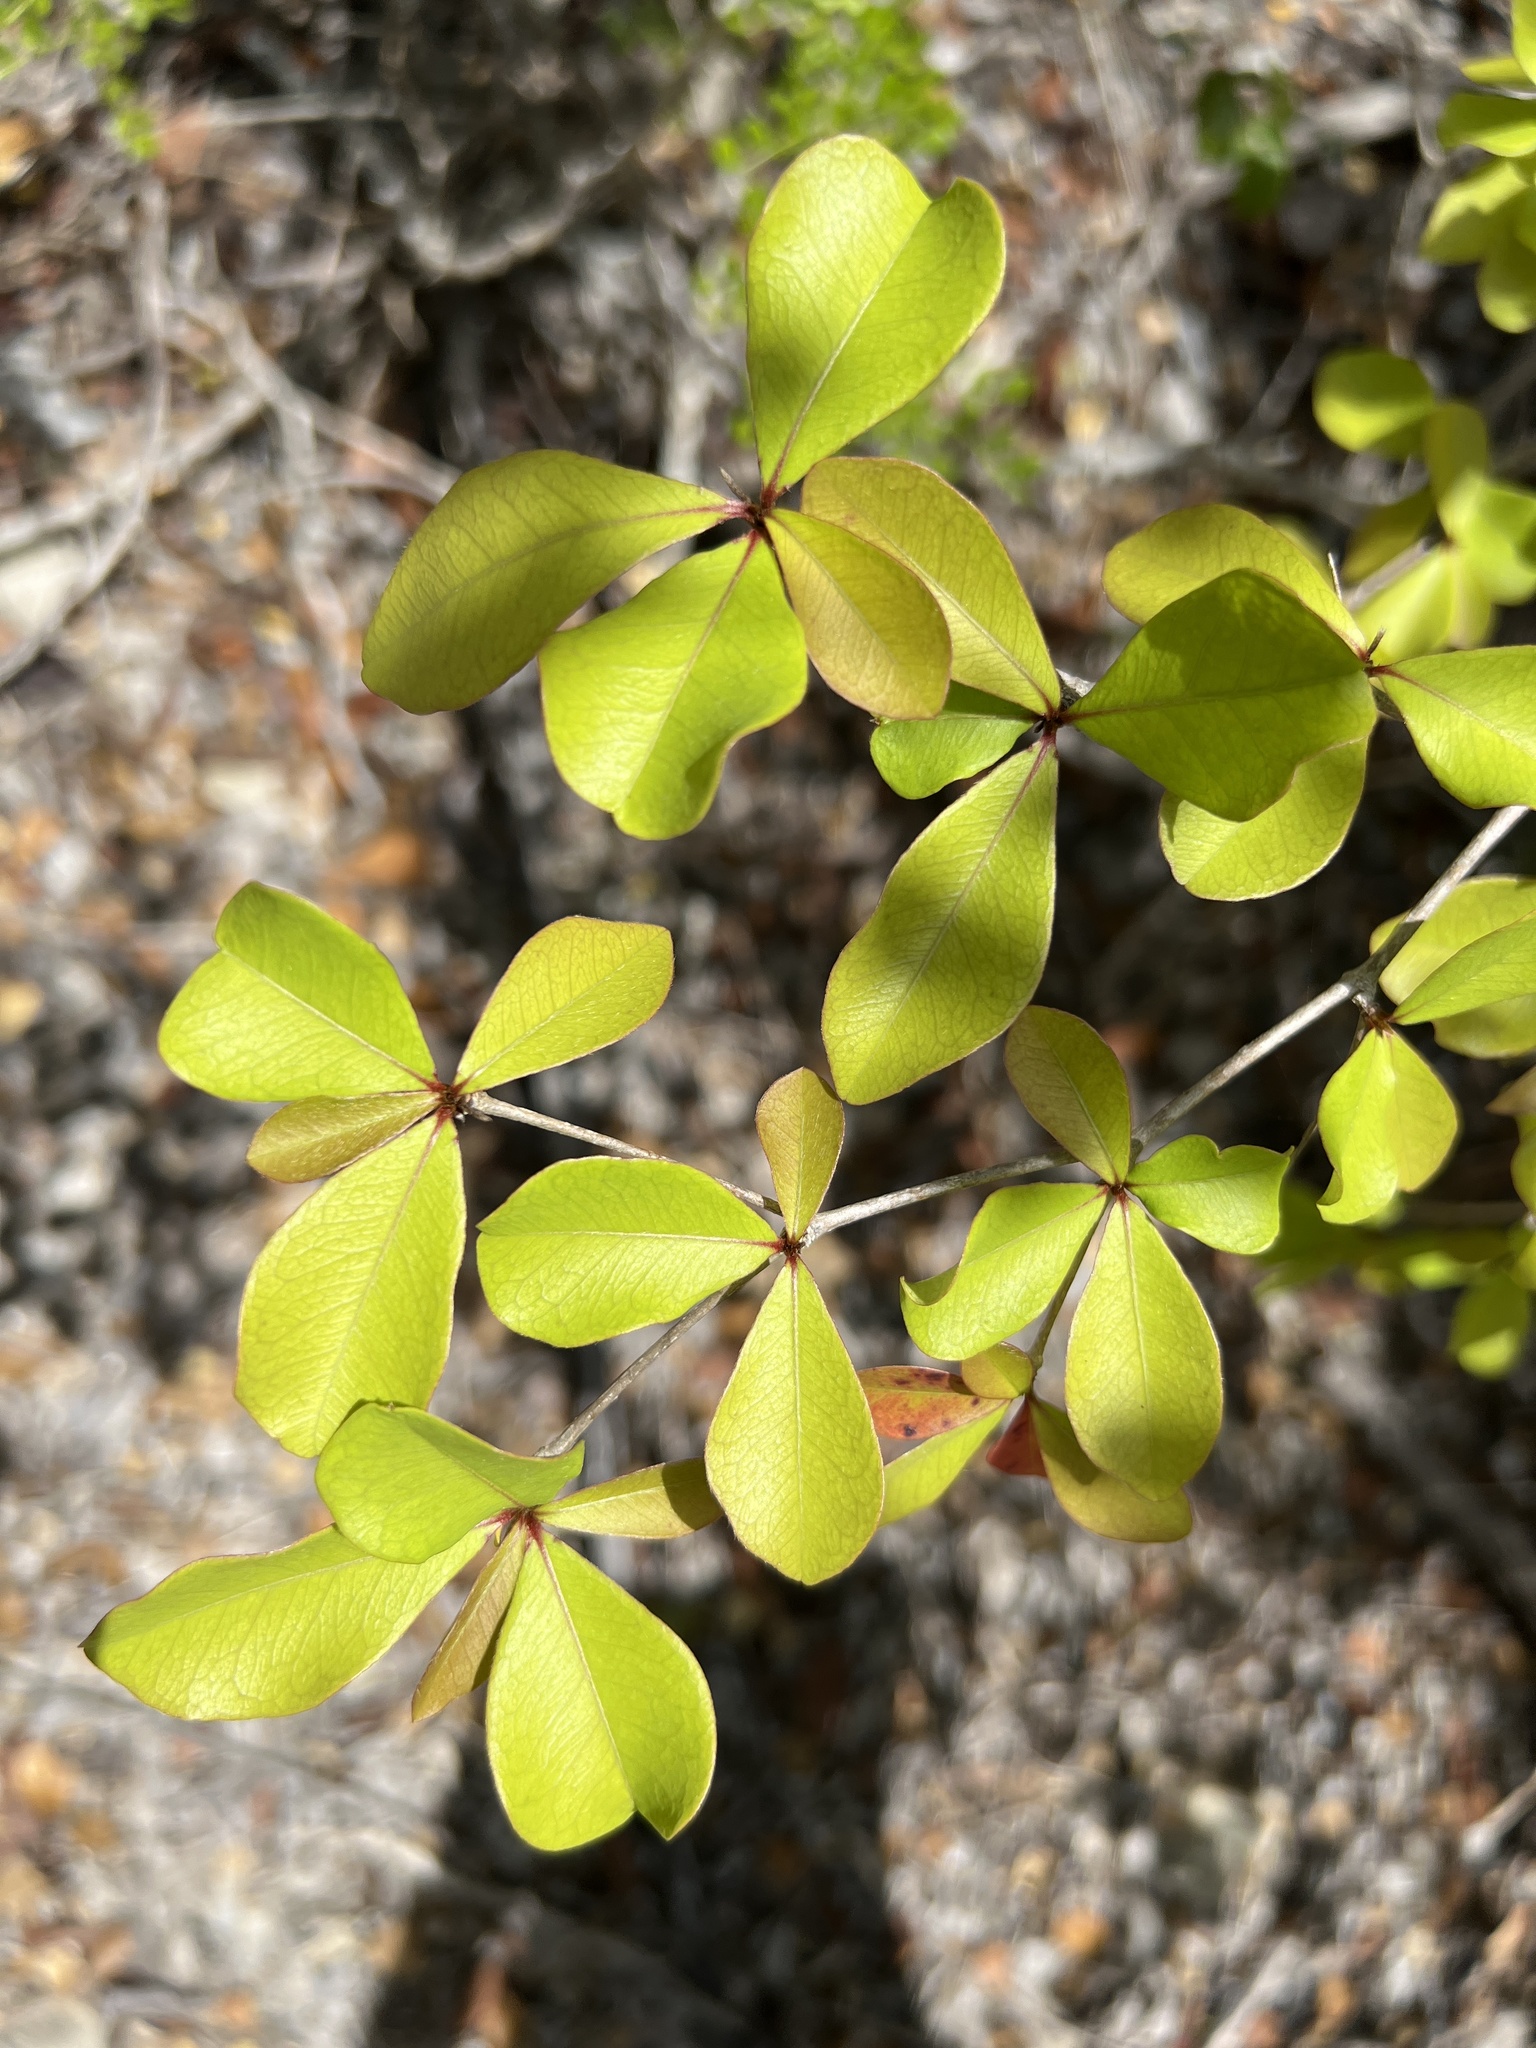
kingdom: Plantae
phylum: Tracheophyta
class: Magnoliopsida
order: Myrtales
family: Combretaceae
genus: Terminalia
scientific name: Terminalia buceras
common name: Black-olive
